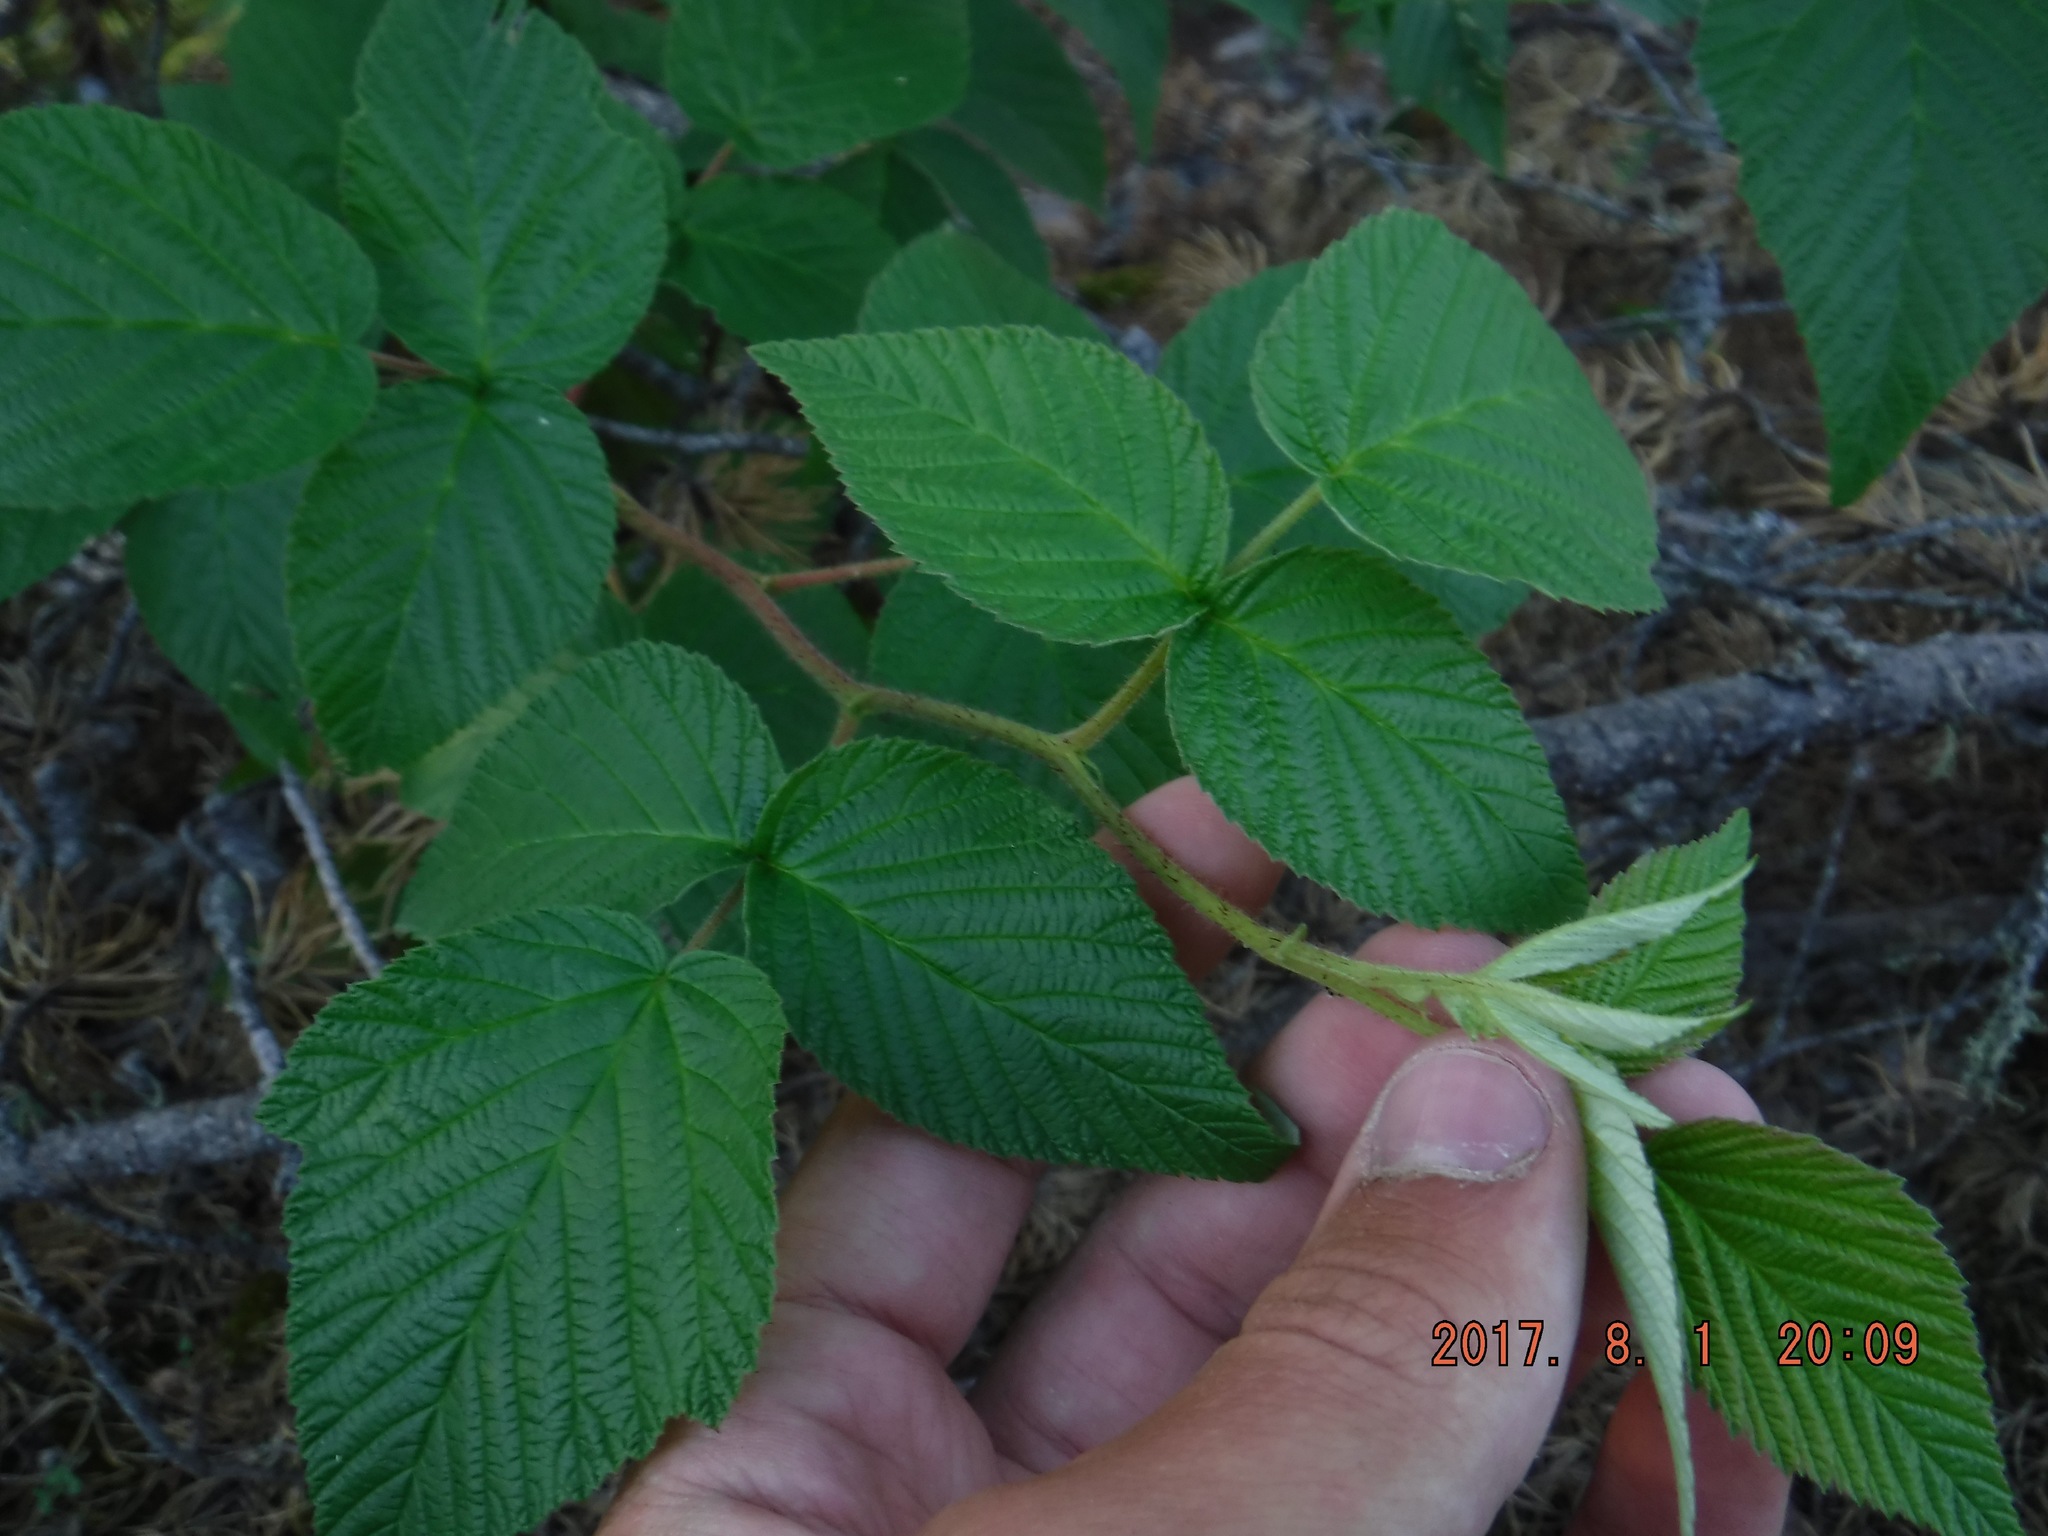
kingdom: Plantae
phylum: Tracheophyta
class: Magnoliopsida
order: Rosales
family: Rosaceae
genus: Rubus
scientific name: Rubus idaeus
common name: Raspberry
